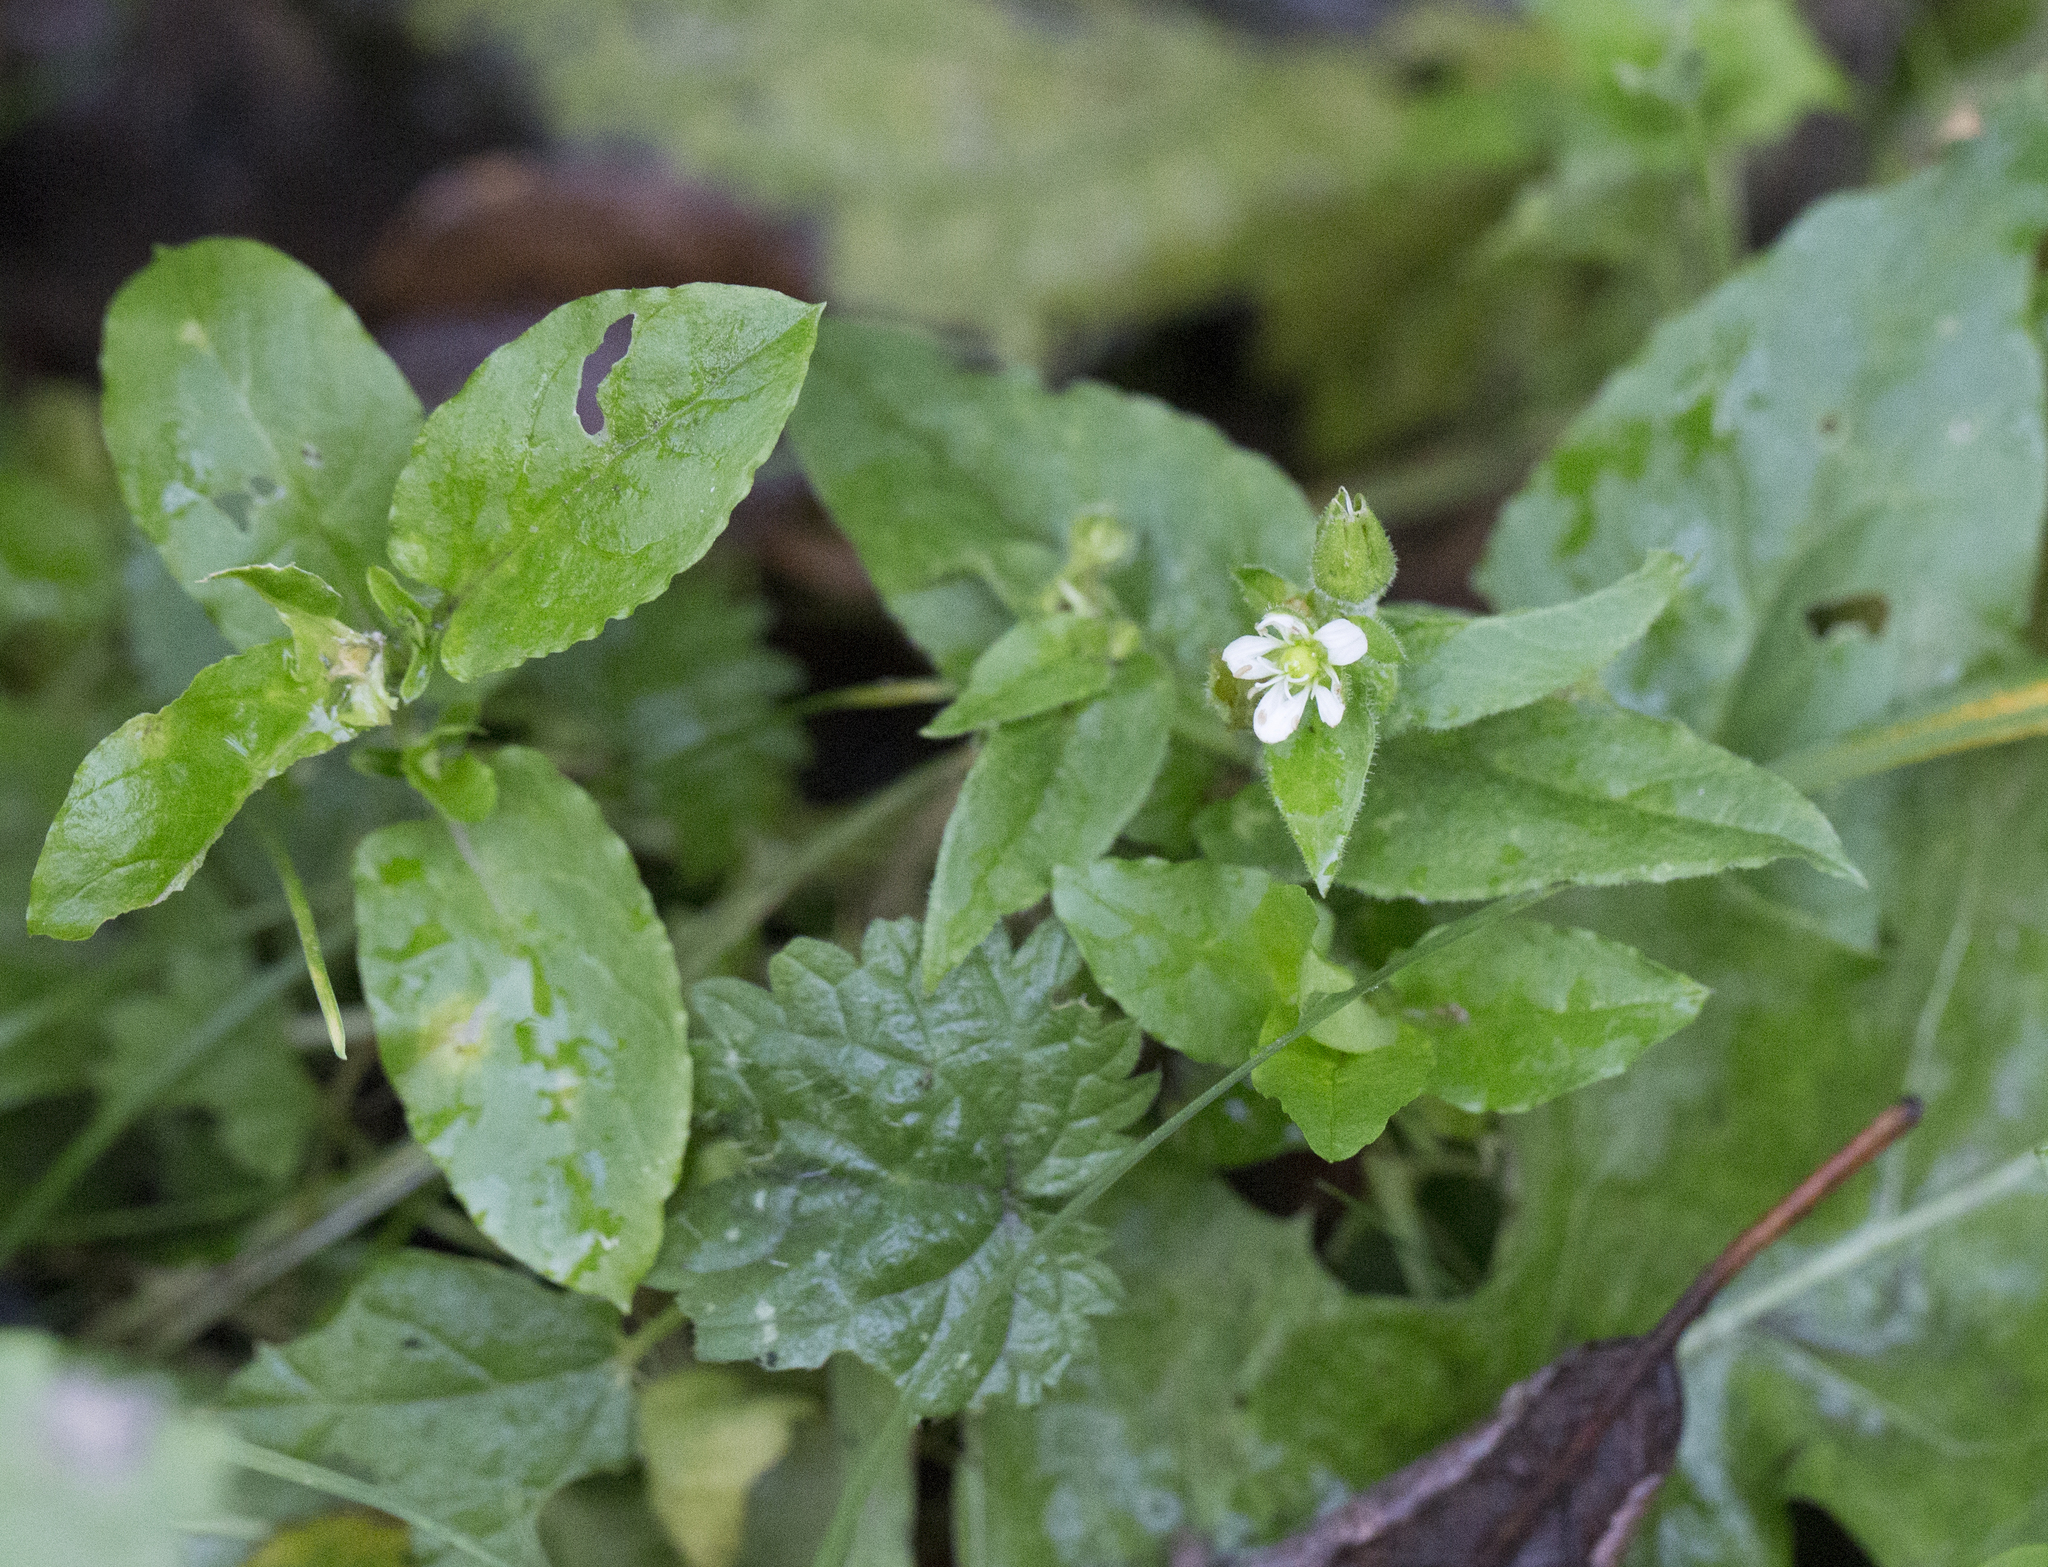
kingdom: Plantae
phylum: Tracheophyta
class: Magnoliopsida
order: Caryophyllales
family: Caryophyllaceae
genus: Stellaria
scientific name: Stellaria aquatica
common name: Water chickweed
